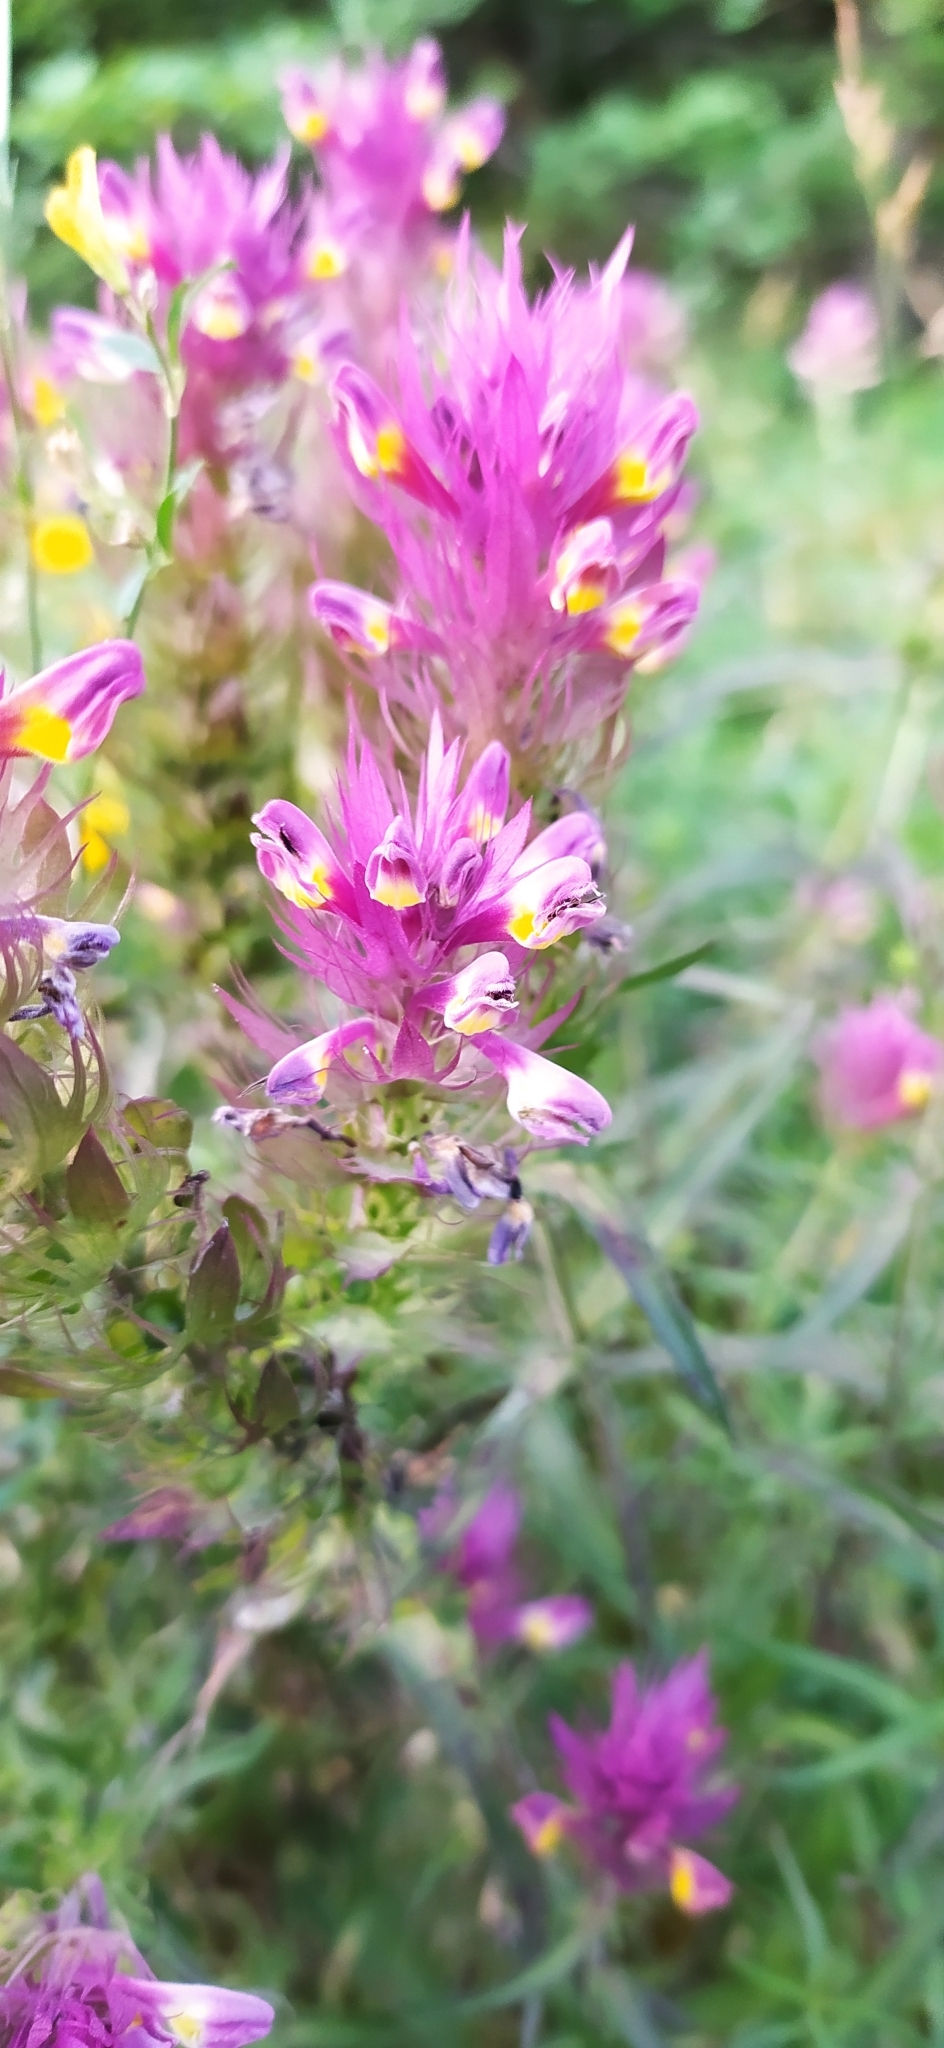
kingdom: Plantae
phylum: Tracheophyta
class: Magnoliopsida
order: Lamiales
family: Orobanchaceae
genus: Melampyrum
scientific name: Melampyrum arvense
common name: Field cow-wheat
